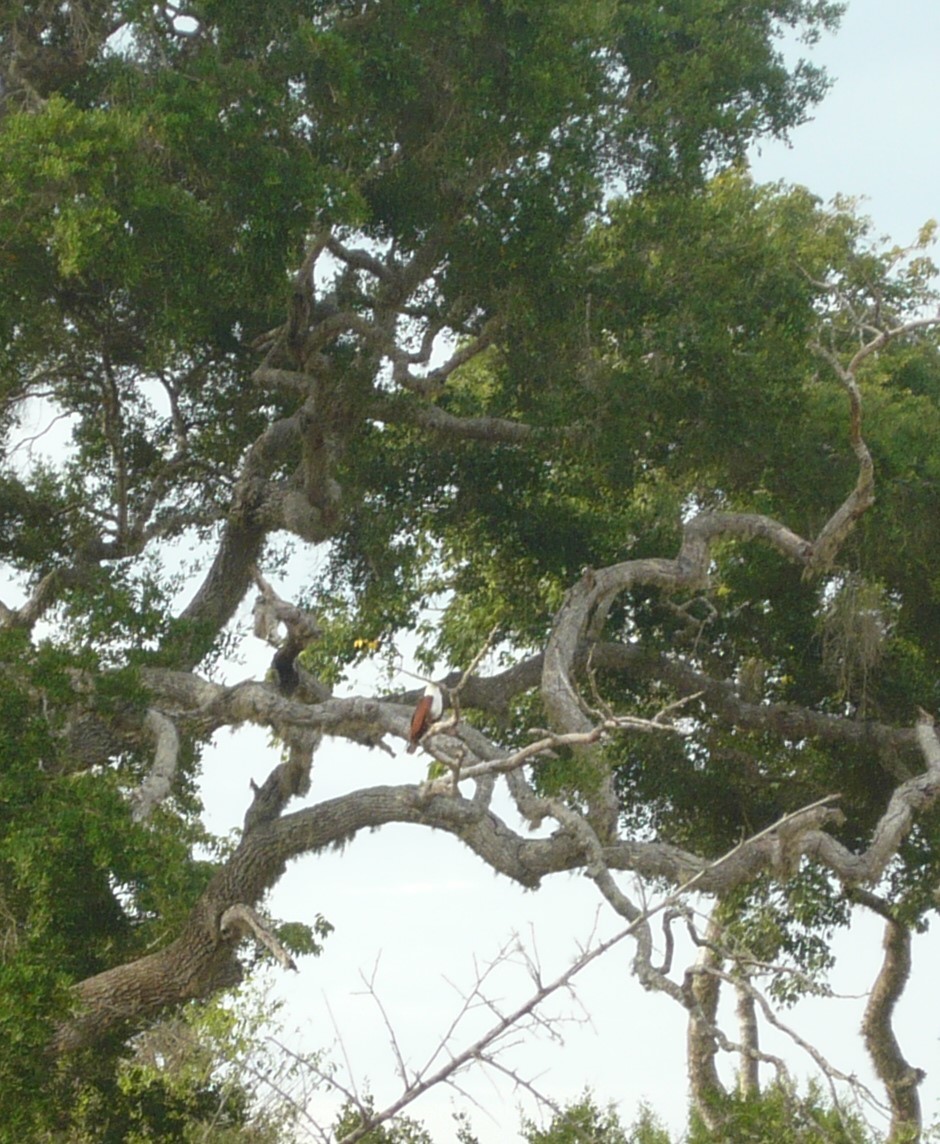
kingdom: Animalia
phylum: Chordata
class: Aves
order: Accipitriformes
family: Accipitridae
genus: Haliastur
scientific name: Haliastur indus
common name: Brahminy kite
